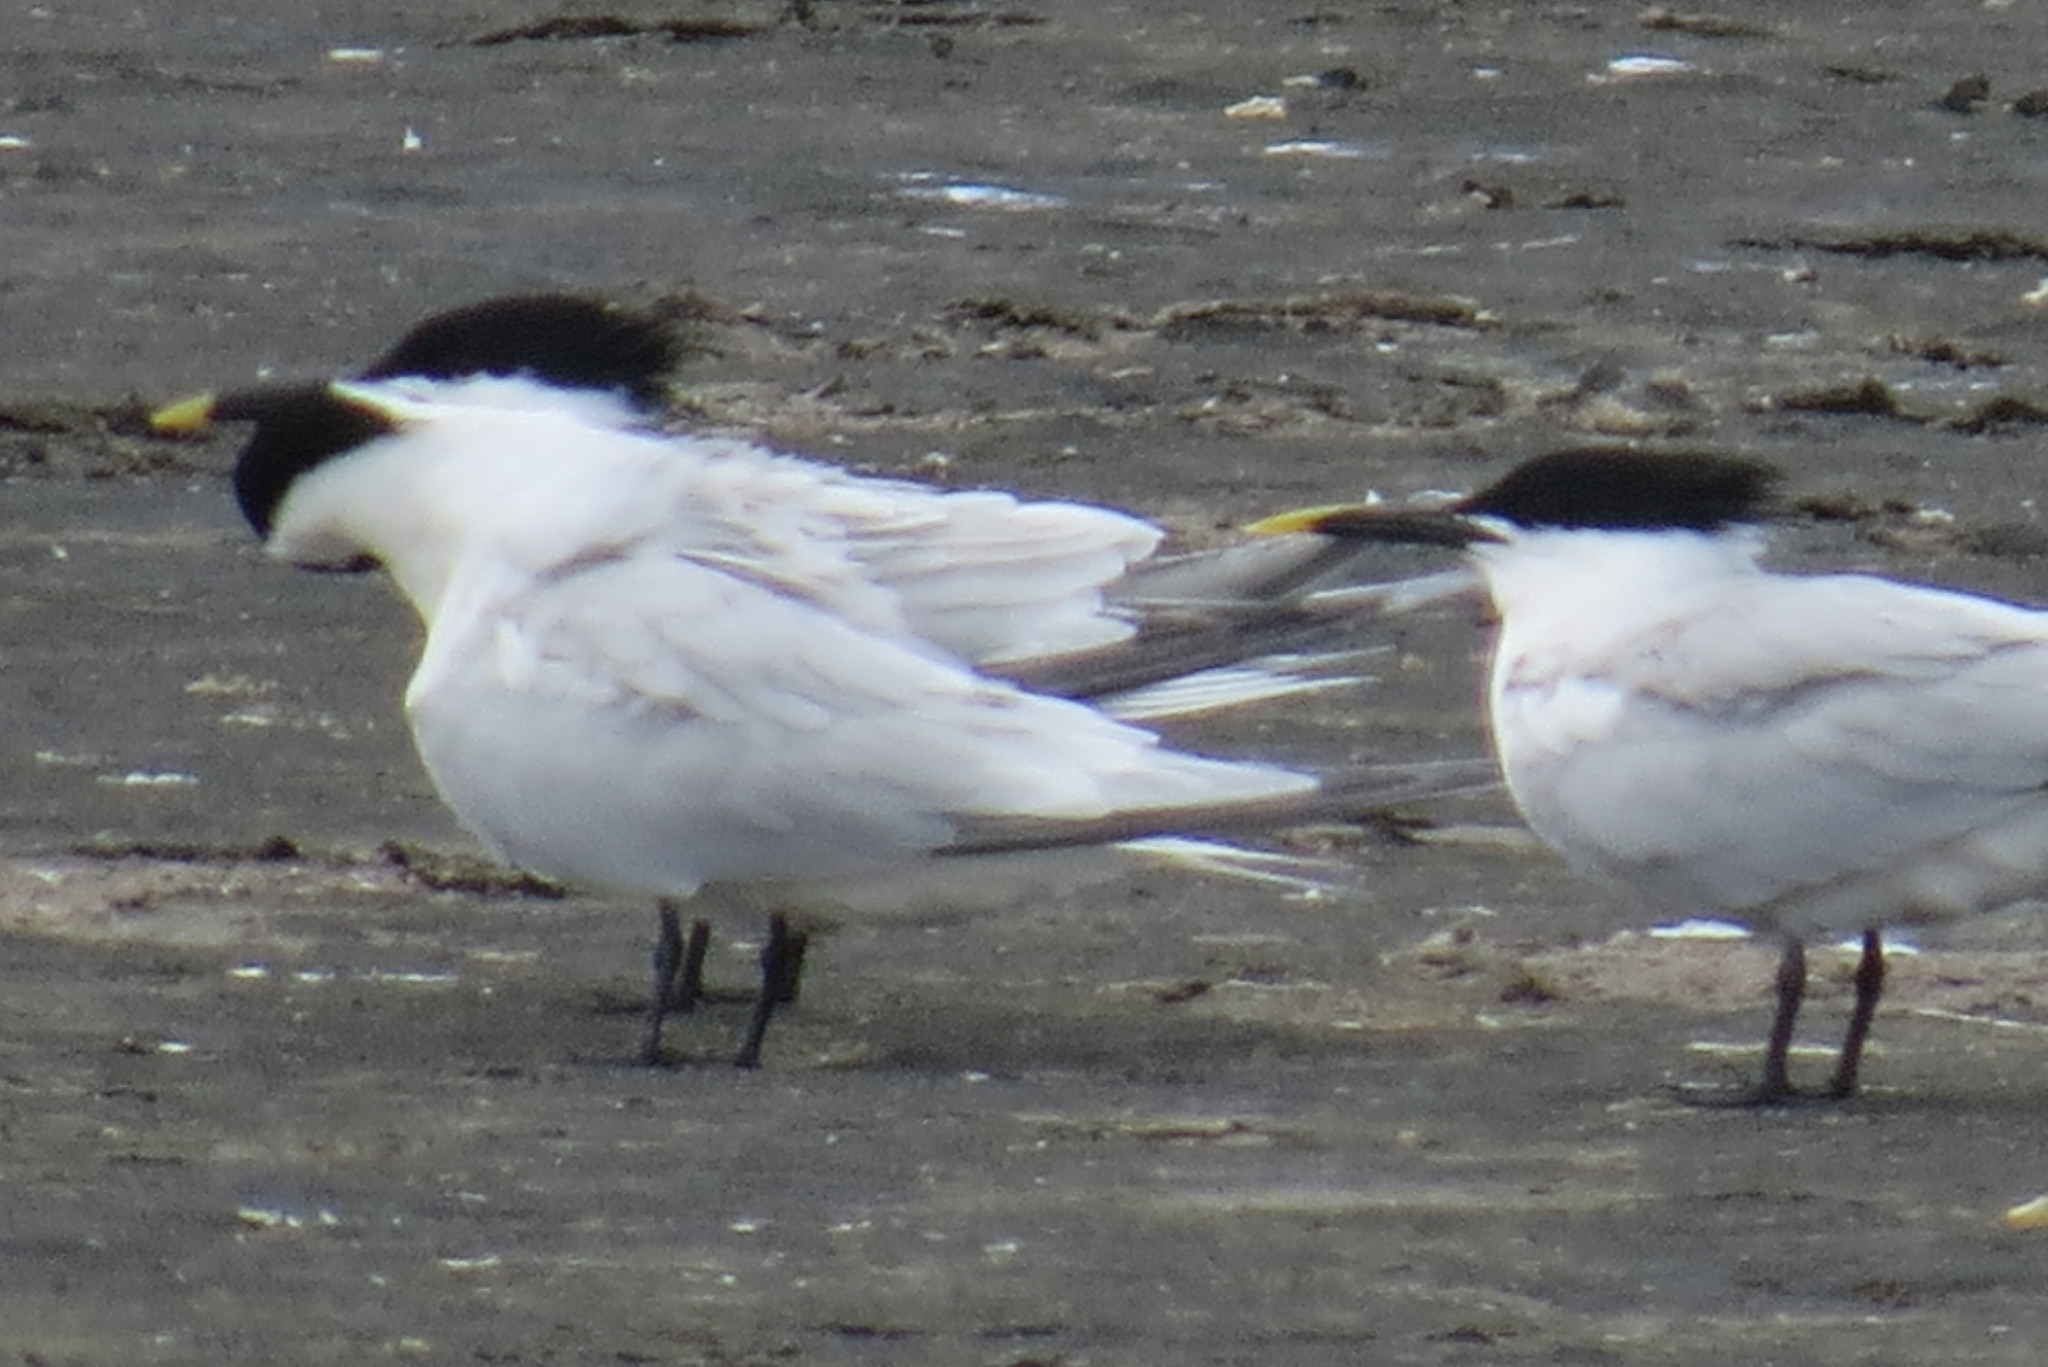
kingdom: Animalia
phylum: Chordata
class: Aves
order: Charadriiformes
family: Laridae
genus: Thalasseus
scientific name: Thalasseus sandvicensis
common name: Sandwich tern
